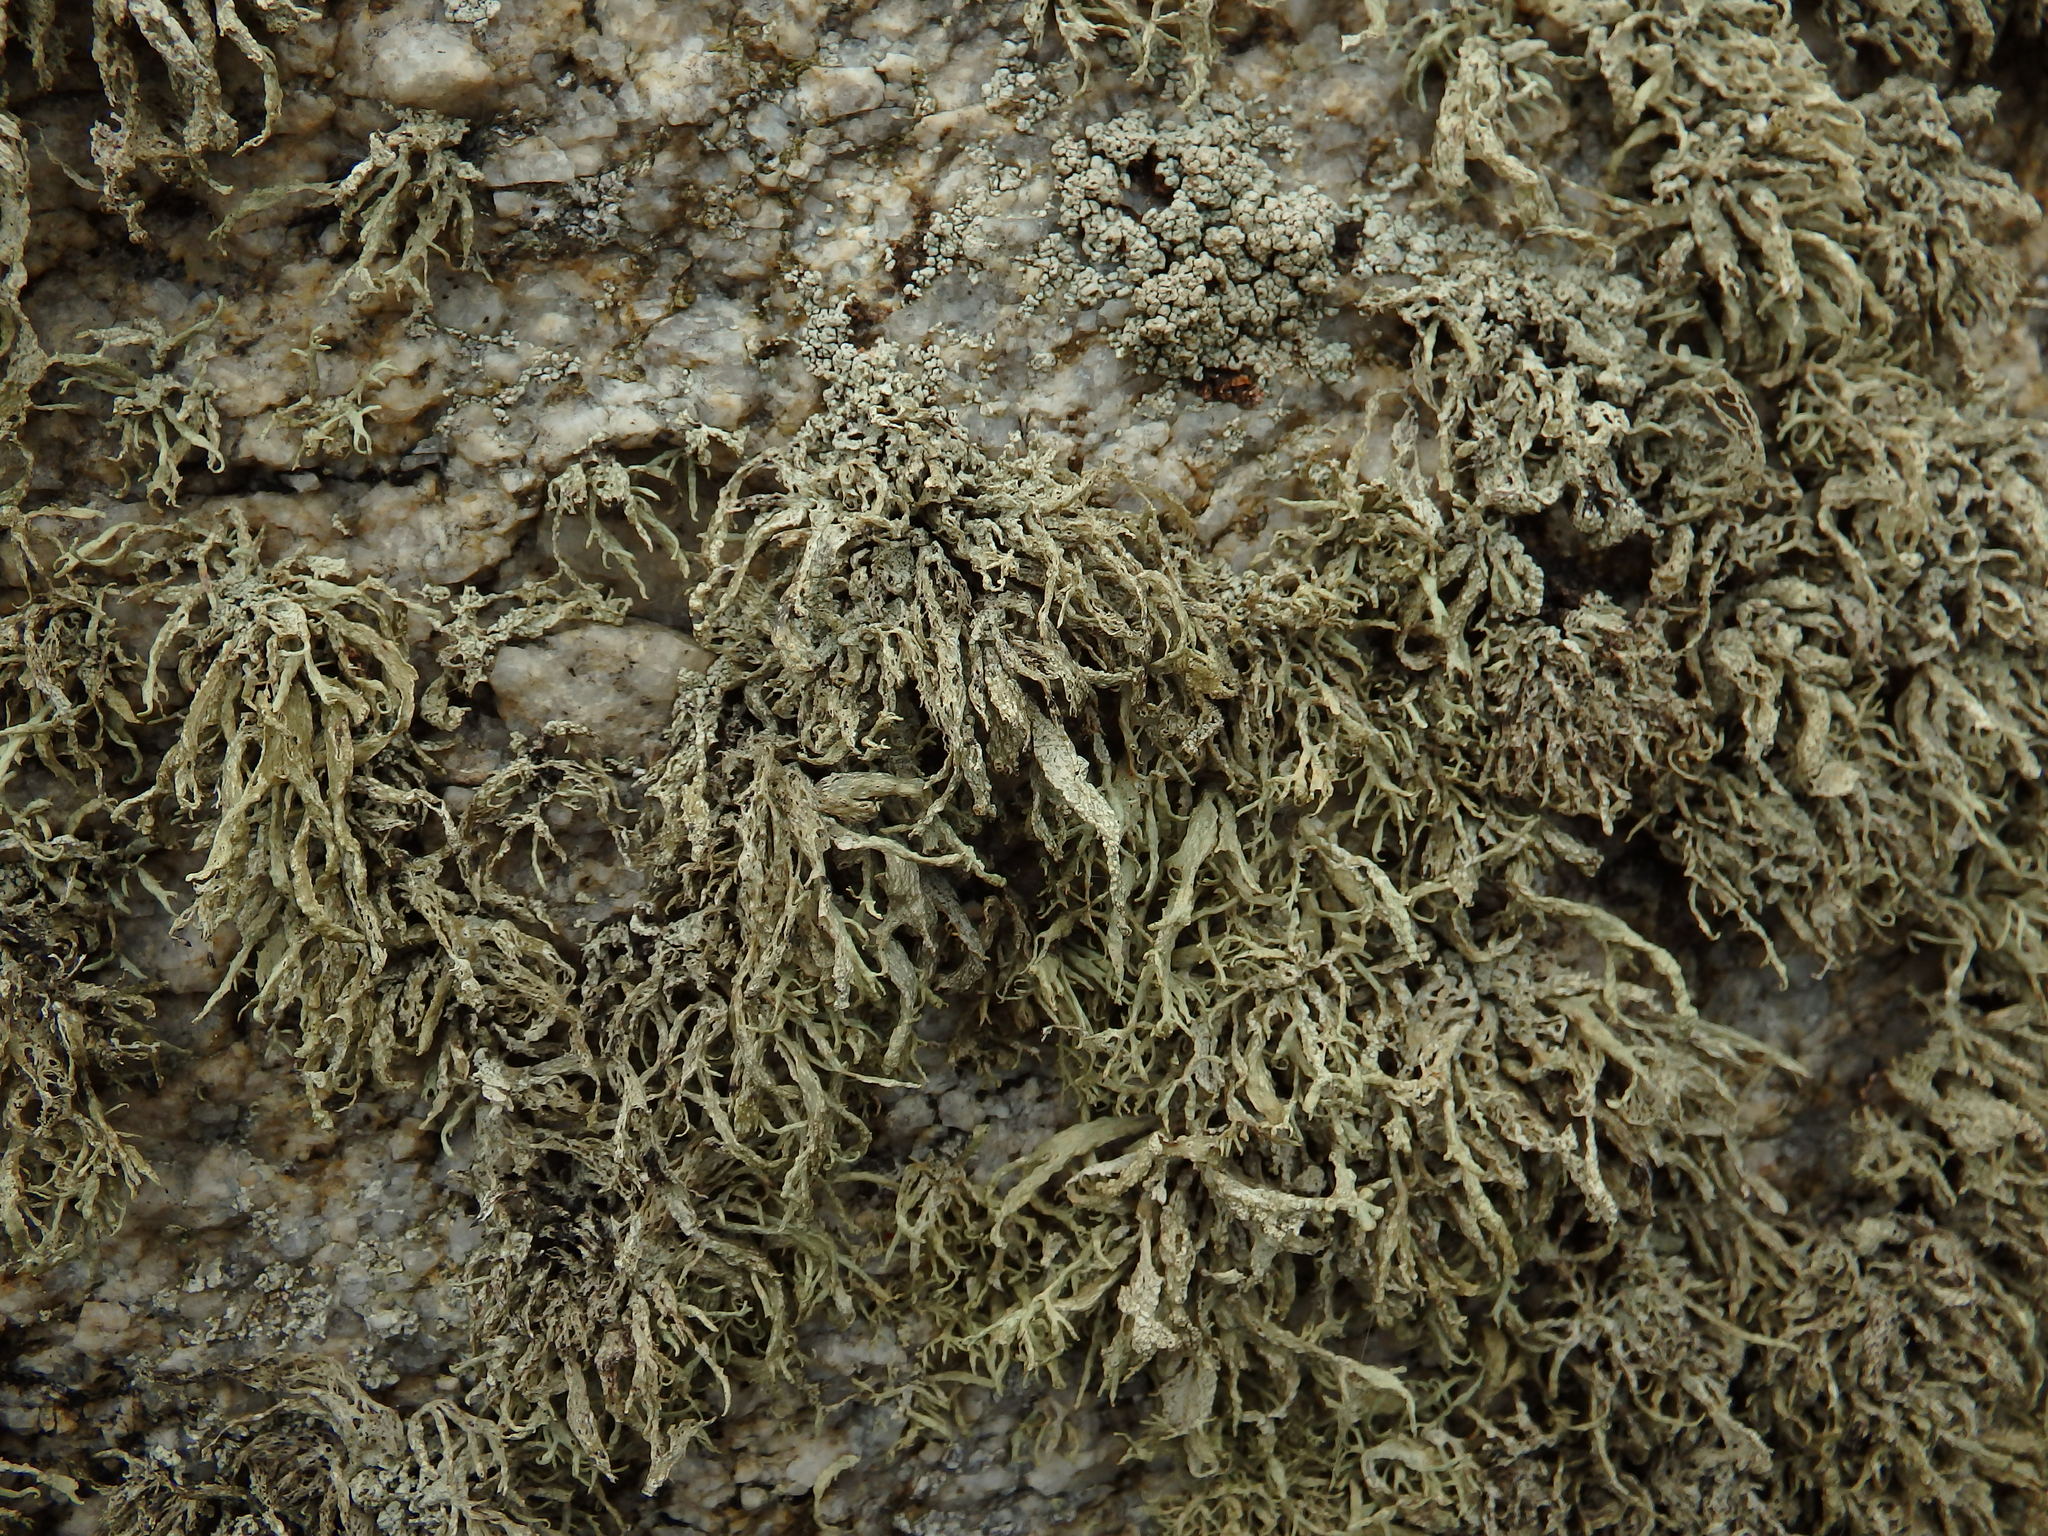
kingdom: Fungi
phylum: Ascomycota
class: Lecanoromycetes
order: Lecanorales
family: Ramalinaceae
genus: Ramalina
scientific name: Ramalina polymorpha
